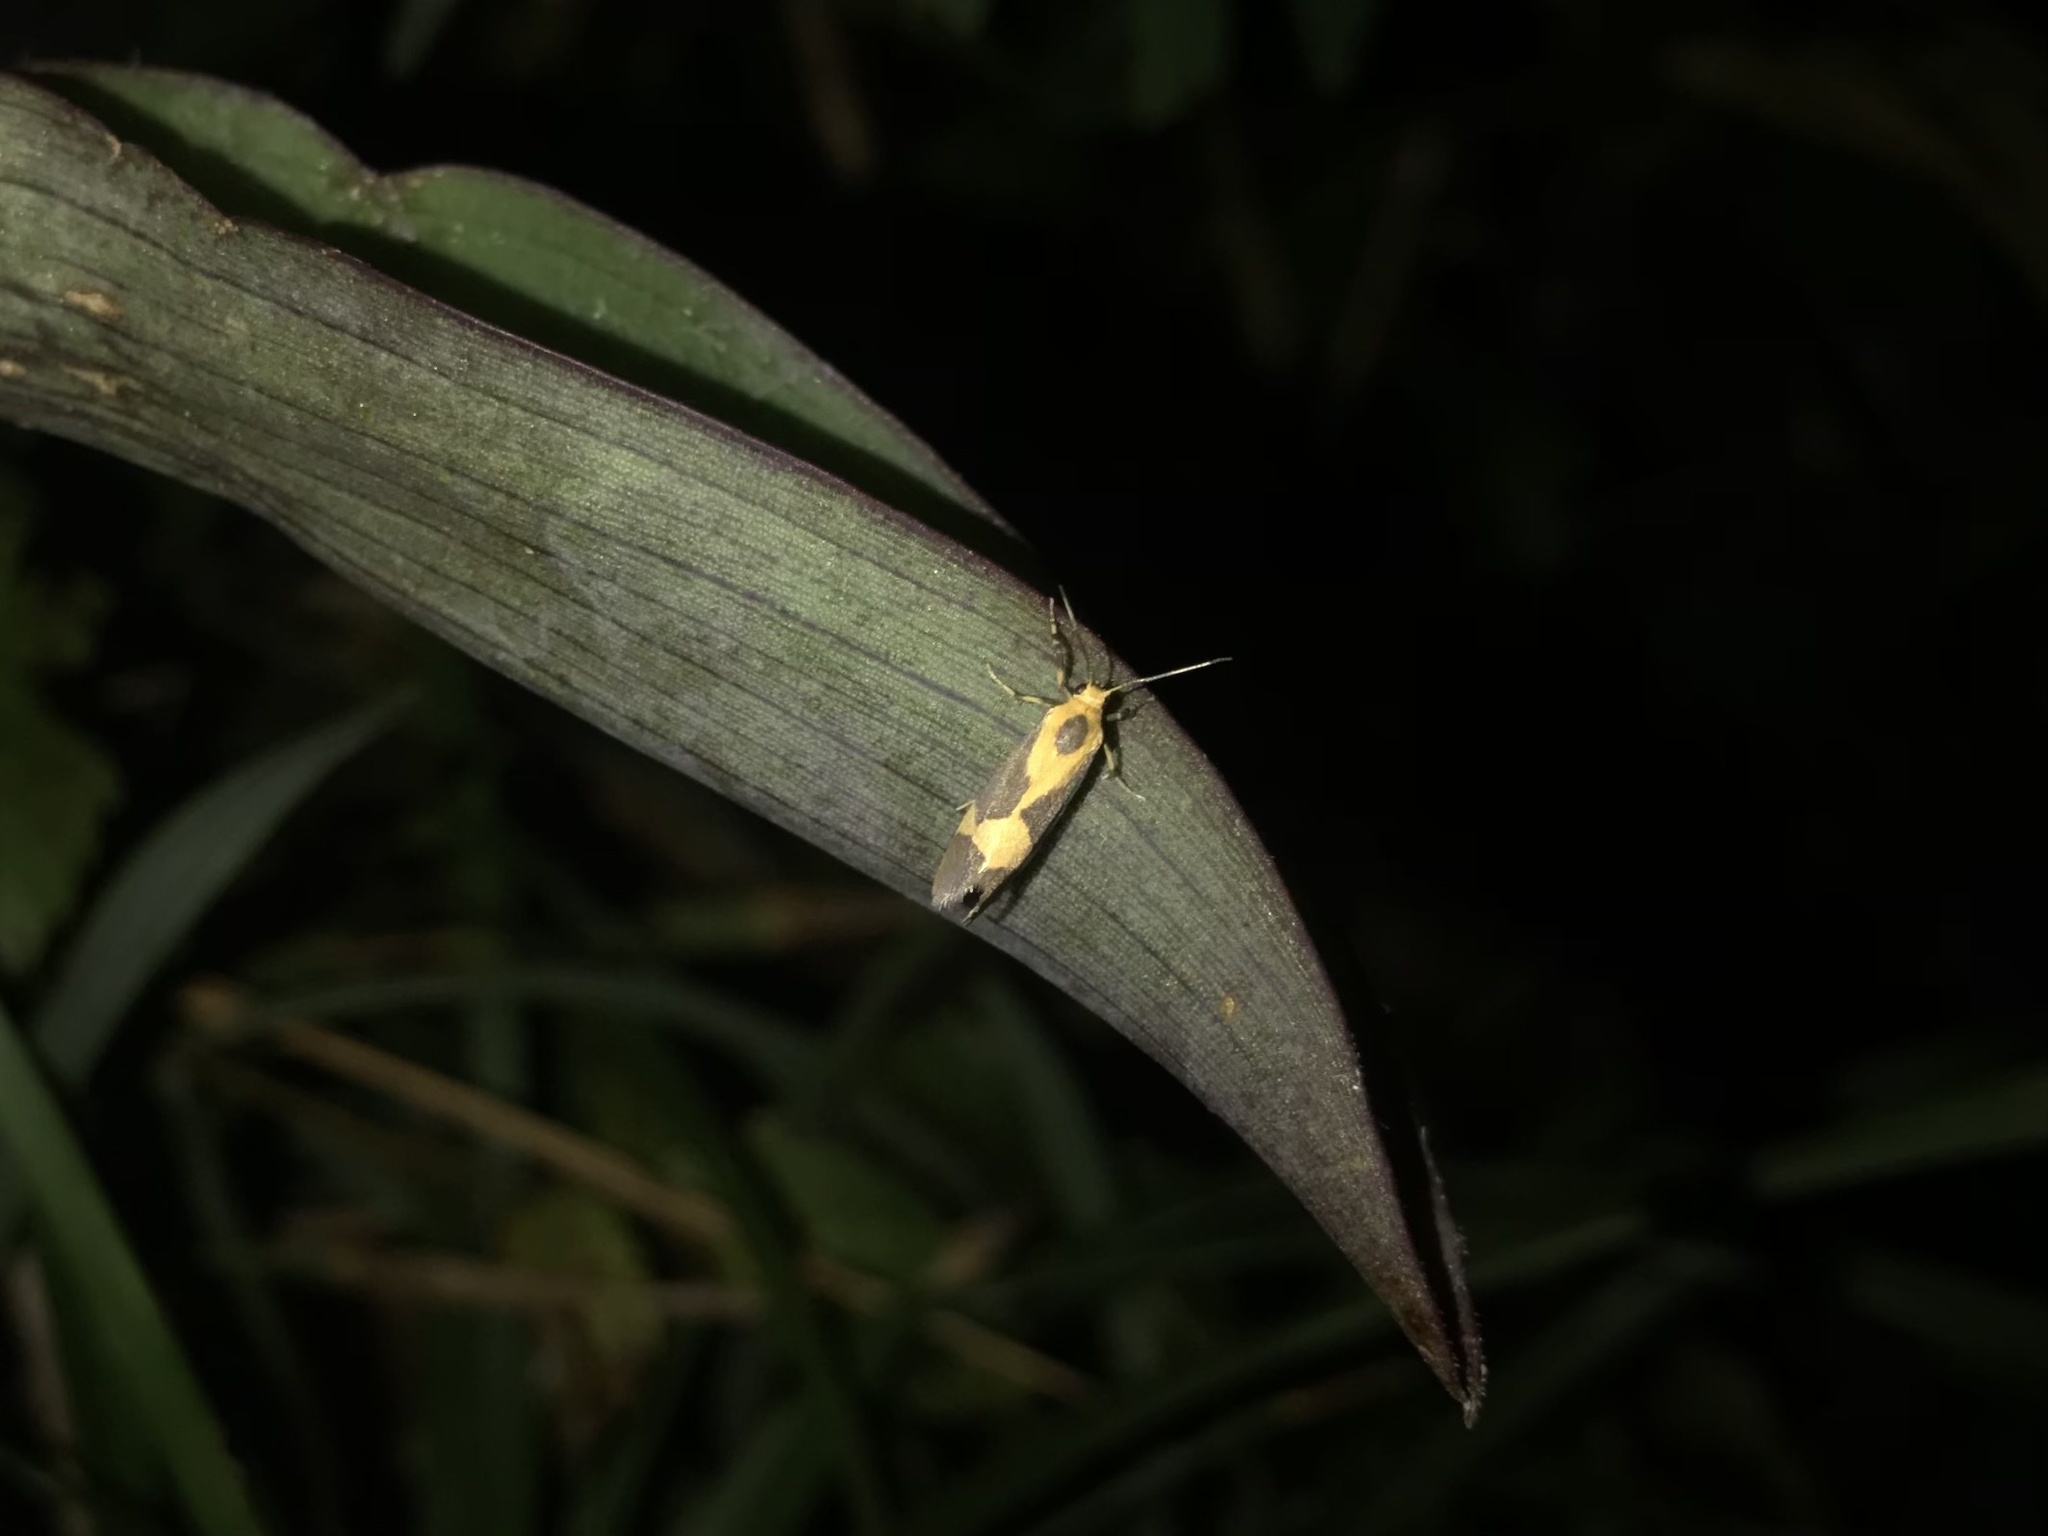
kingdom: Animalia
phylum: Arthropoda
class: Insecta
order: Lepidoptera
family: Erebidae
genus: Cisthene
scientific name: Cisthene unifascia
